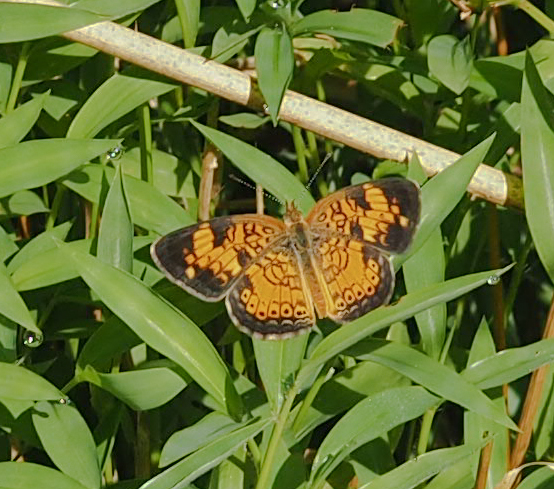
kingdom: Animalia
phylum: Arthropoda
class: Insecta
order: Lepidoptera
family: Nymphalidae
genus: Phyciodes
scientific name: Phyciodes tharos
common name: Pearl crescent
